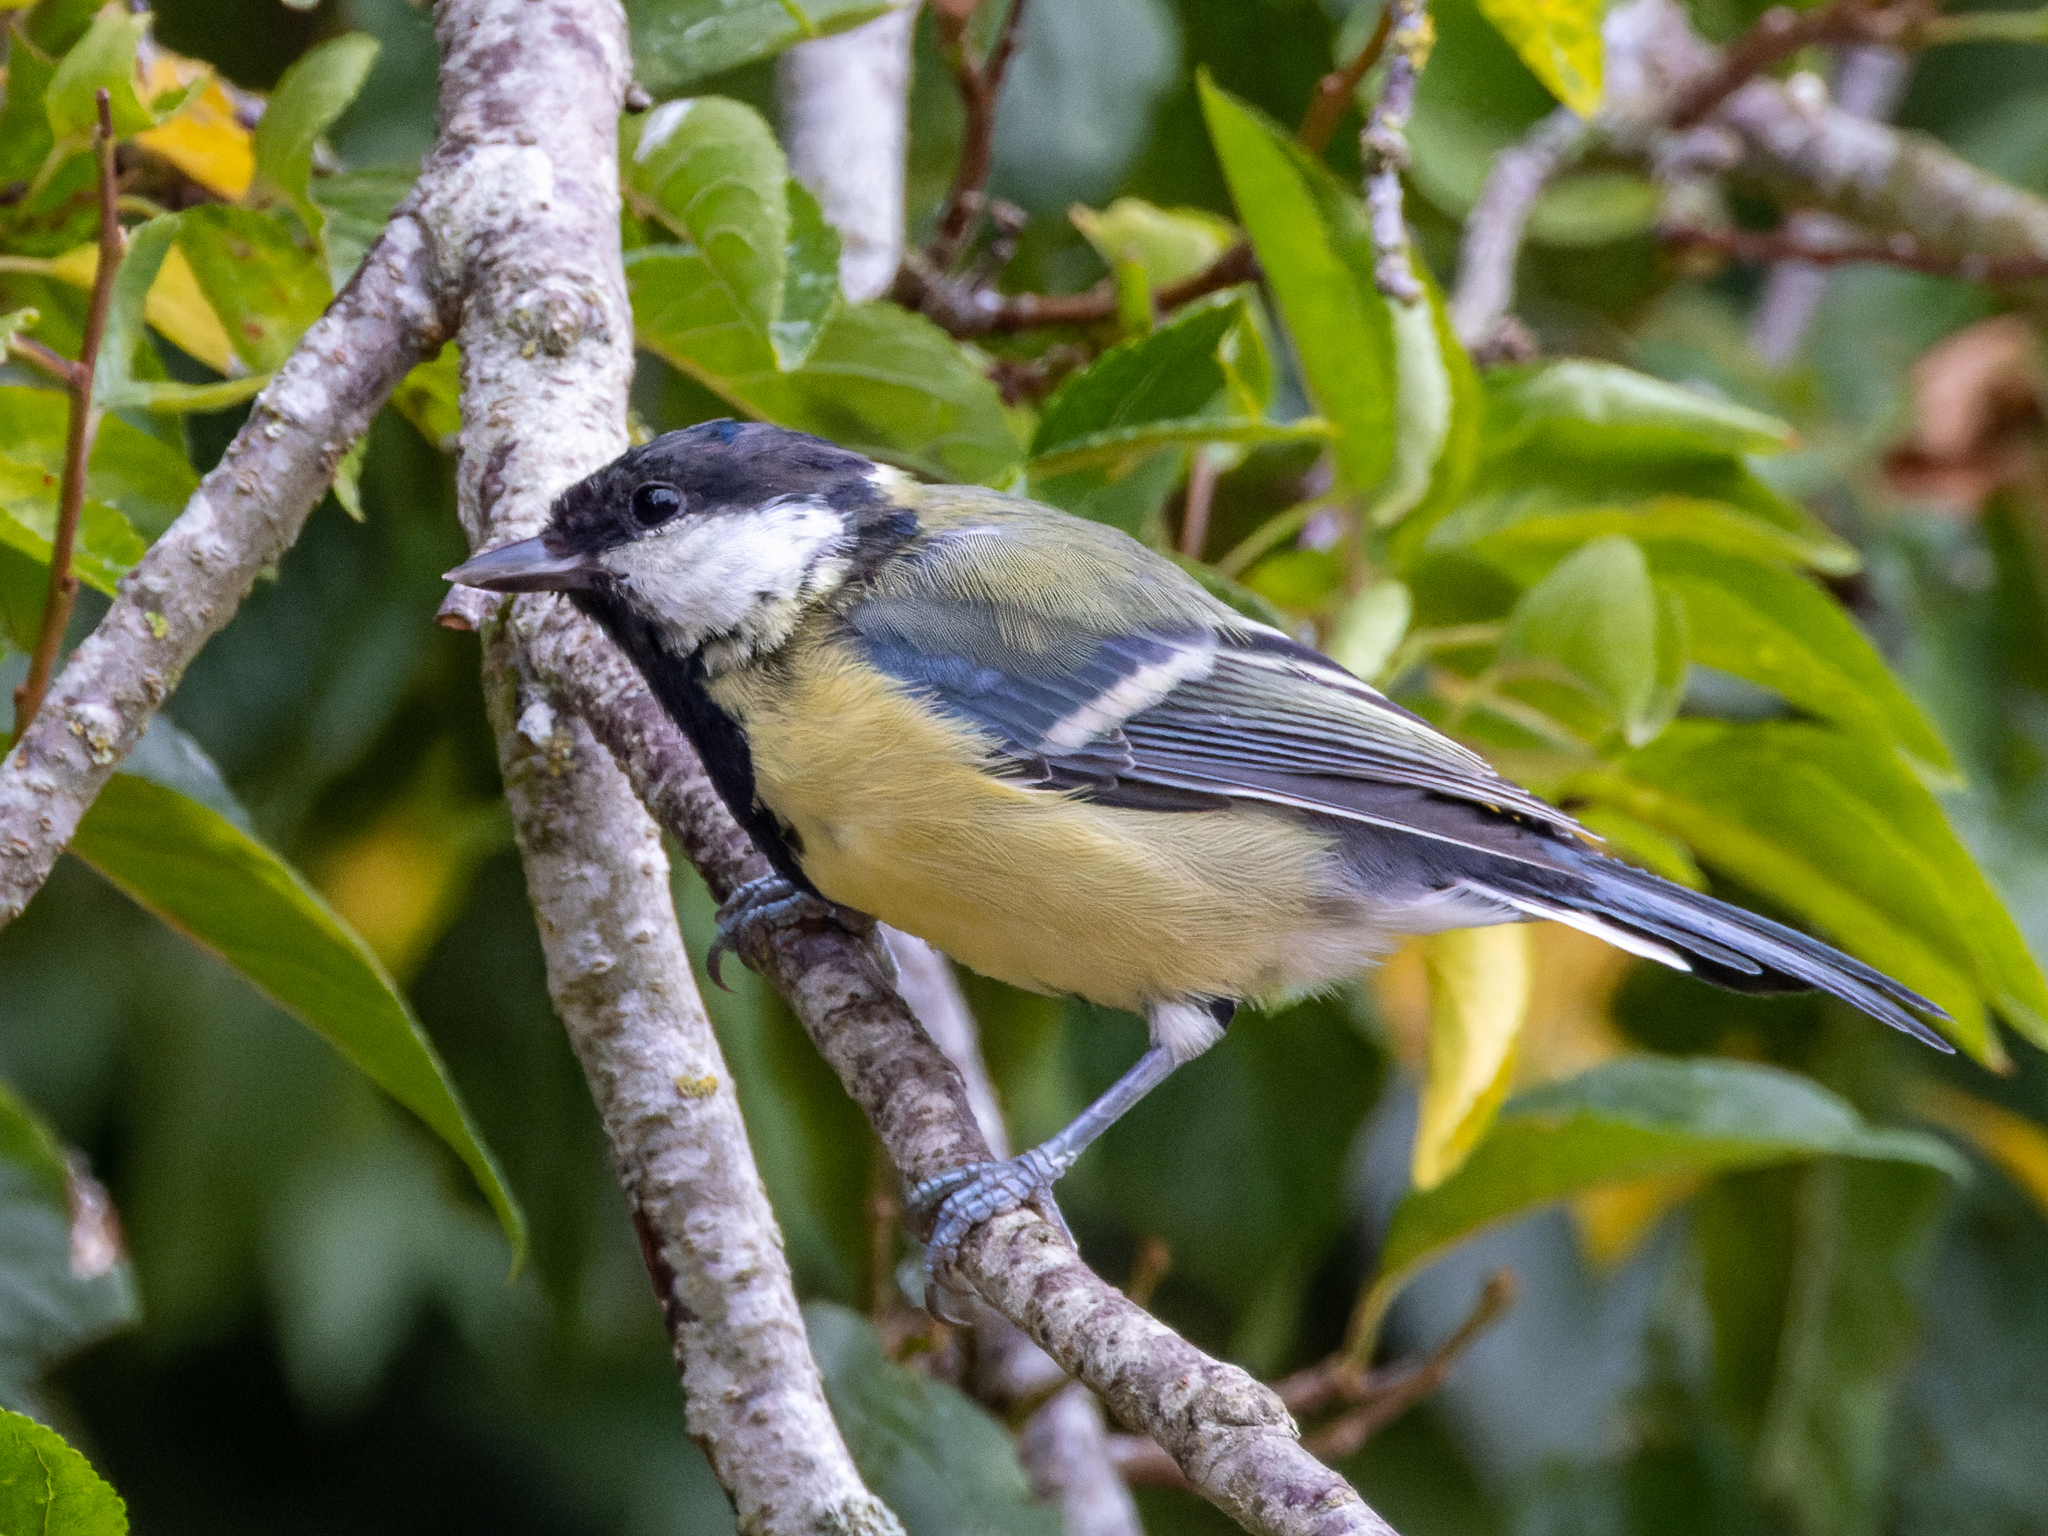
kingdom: Animalia
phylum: Chordata
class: Aves
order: Passeriformes
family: Paridae
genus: Parus
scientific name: Parus major
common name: Great tit
